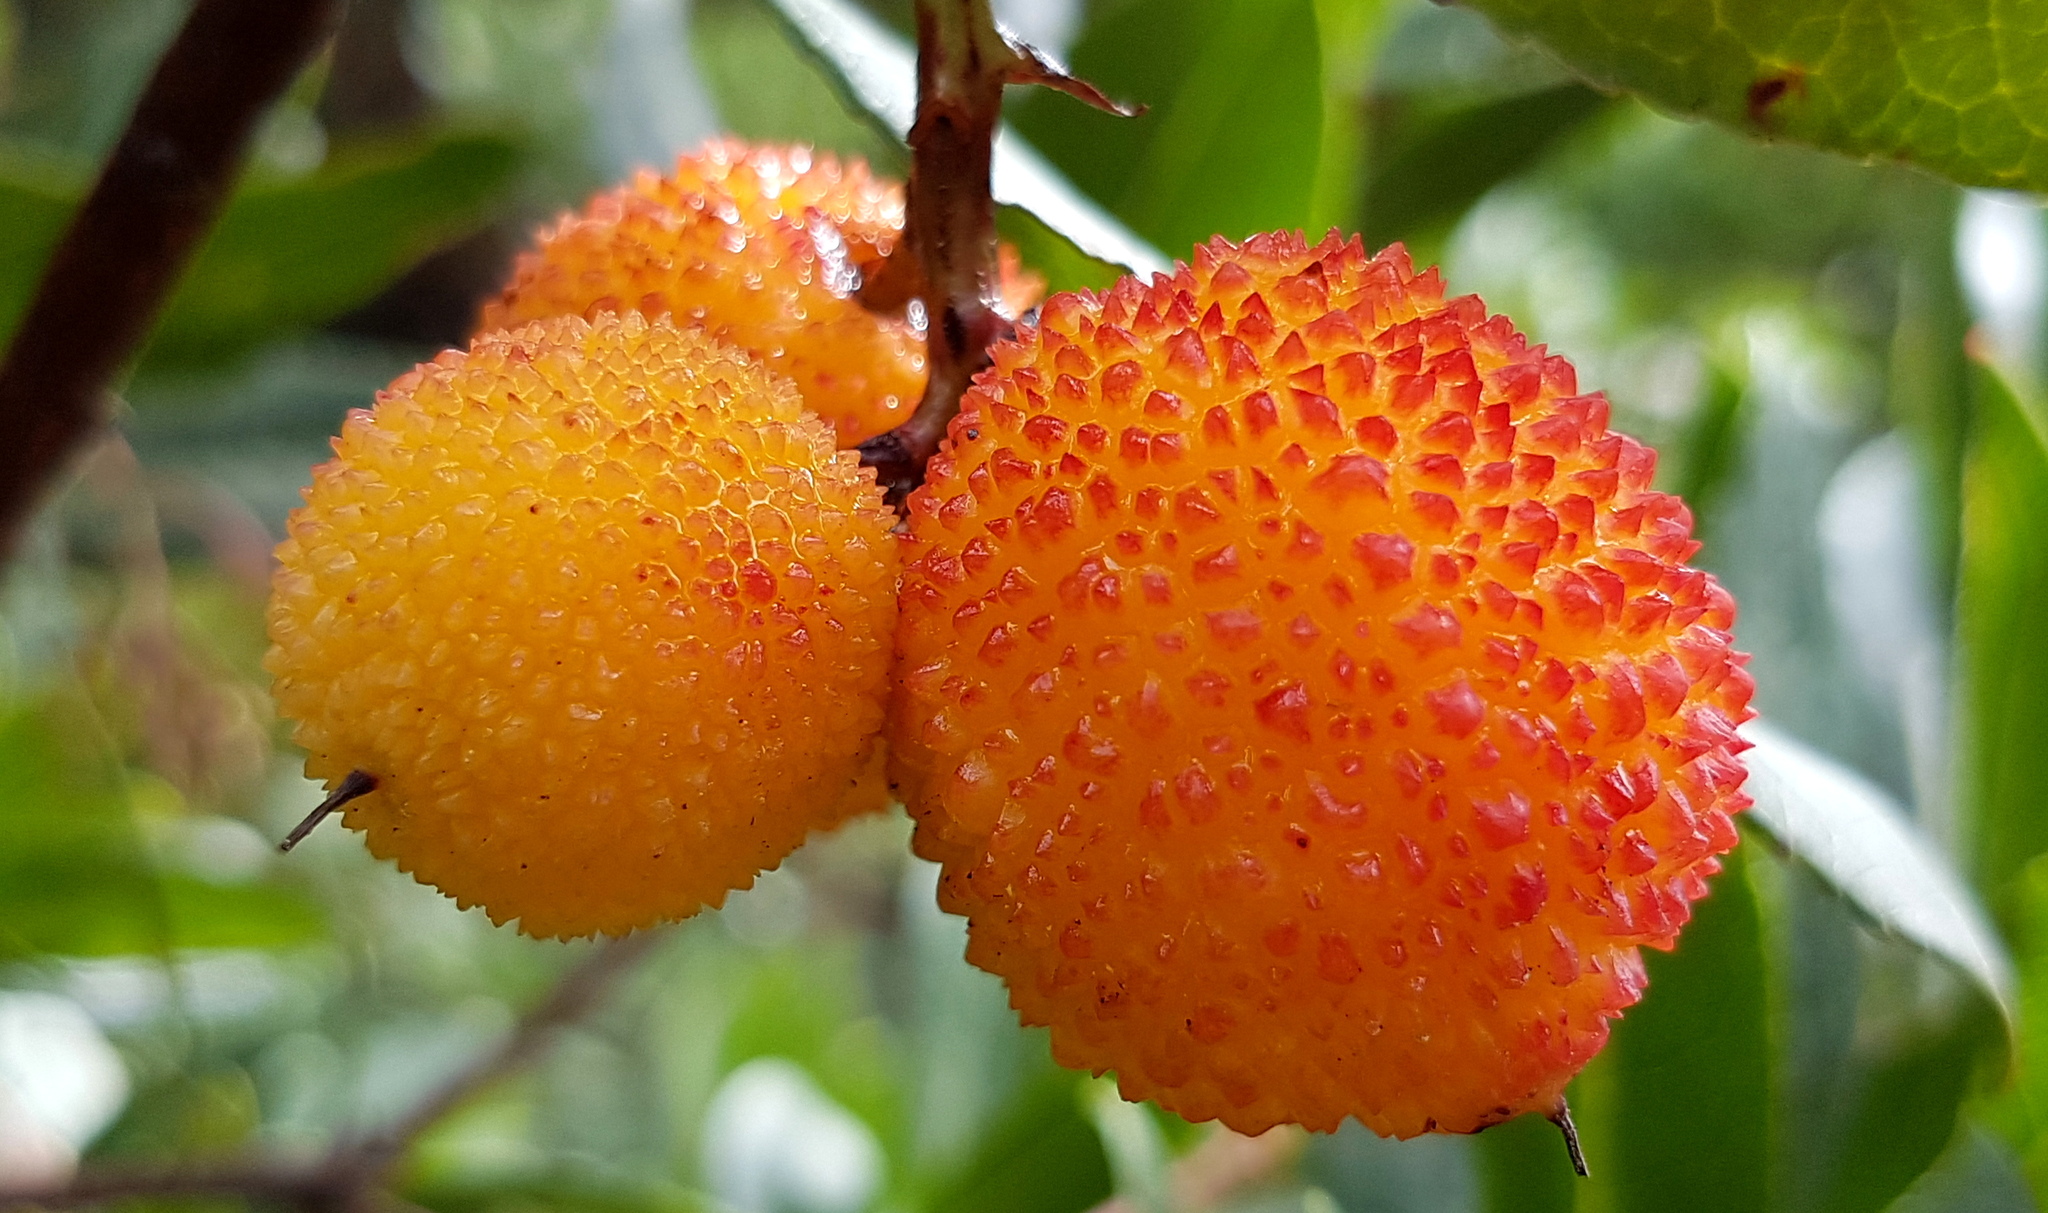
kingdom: Plantae
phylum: Tracheophyta
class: Magnoliopsida
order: Ericales
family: Ericaceae
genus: Arbutus
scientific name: Arbutus unedo
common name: Strawberry-tree
